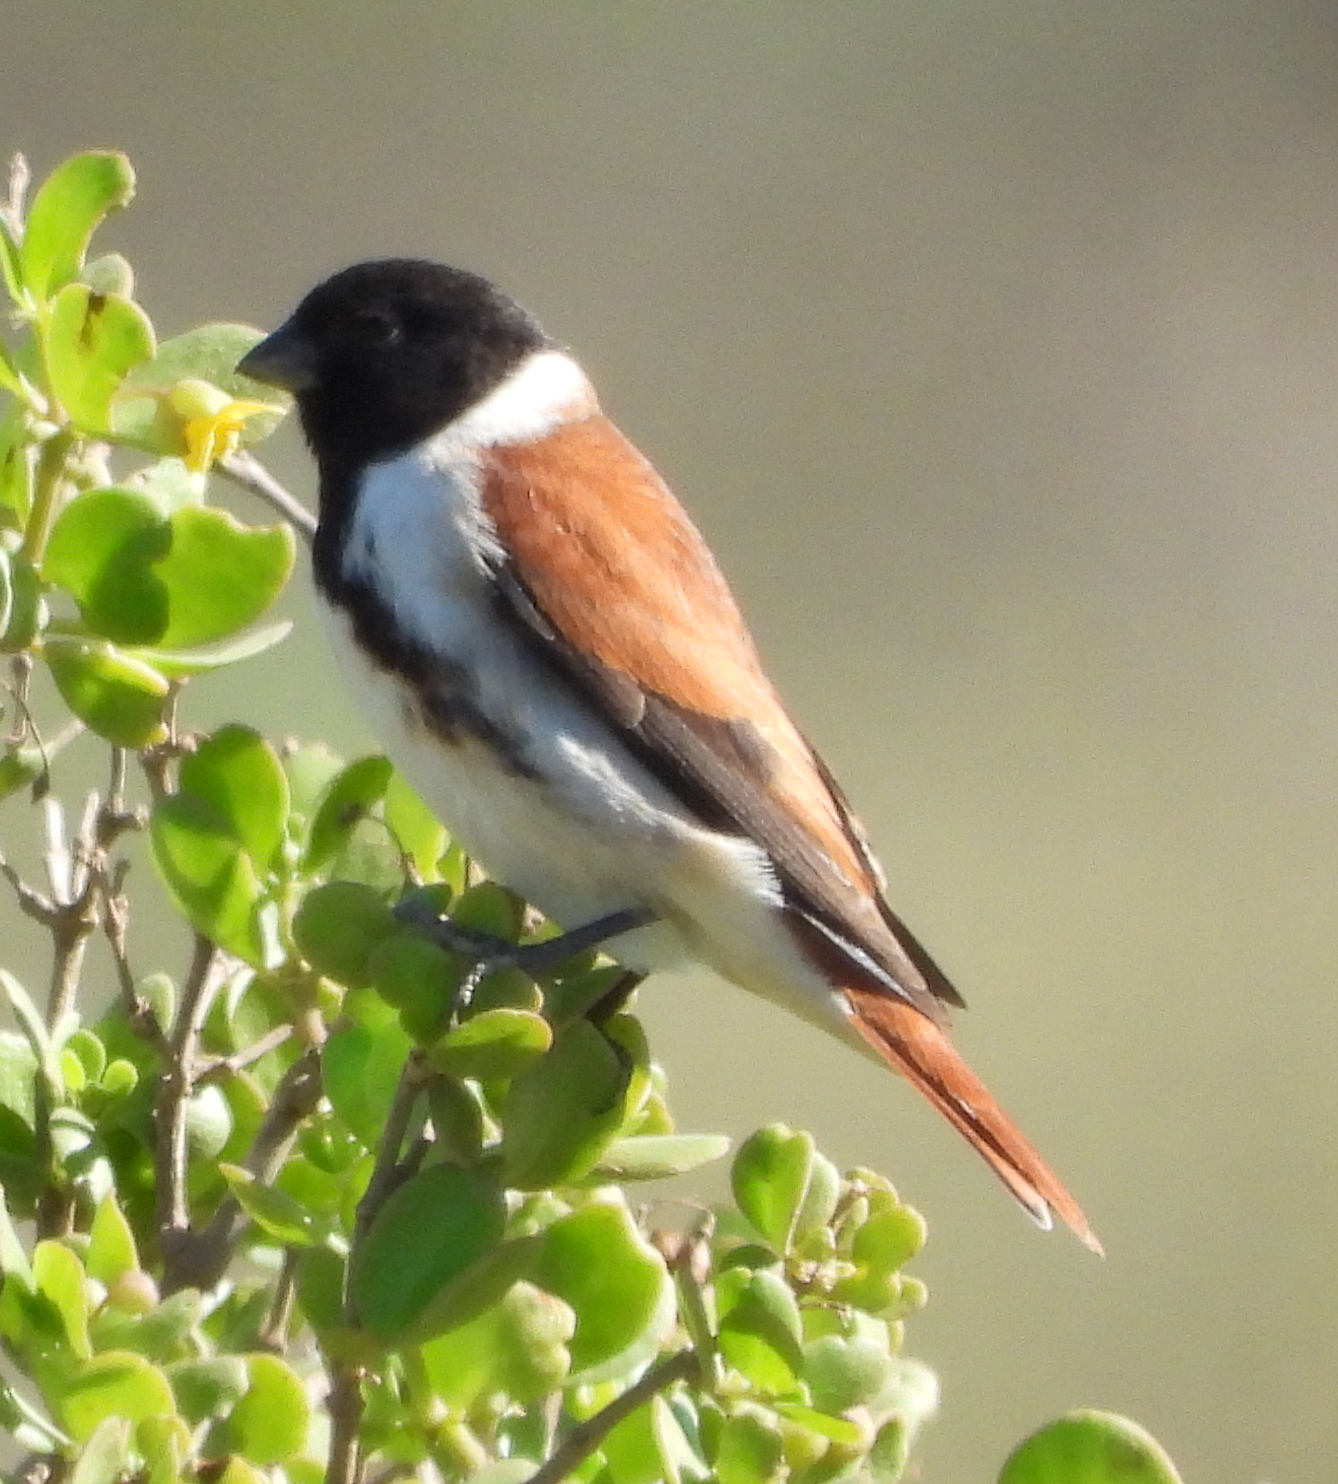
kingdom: Animalia
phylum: Chordata
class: Aves
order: Passeriformes
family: Fringillidae
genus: Serinus
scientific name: Serinus alario
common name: Black-headed canary
